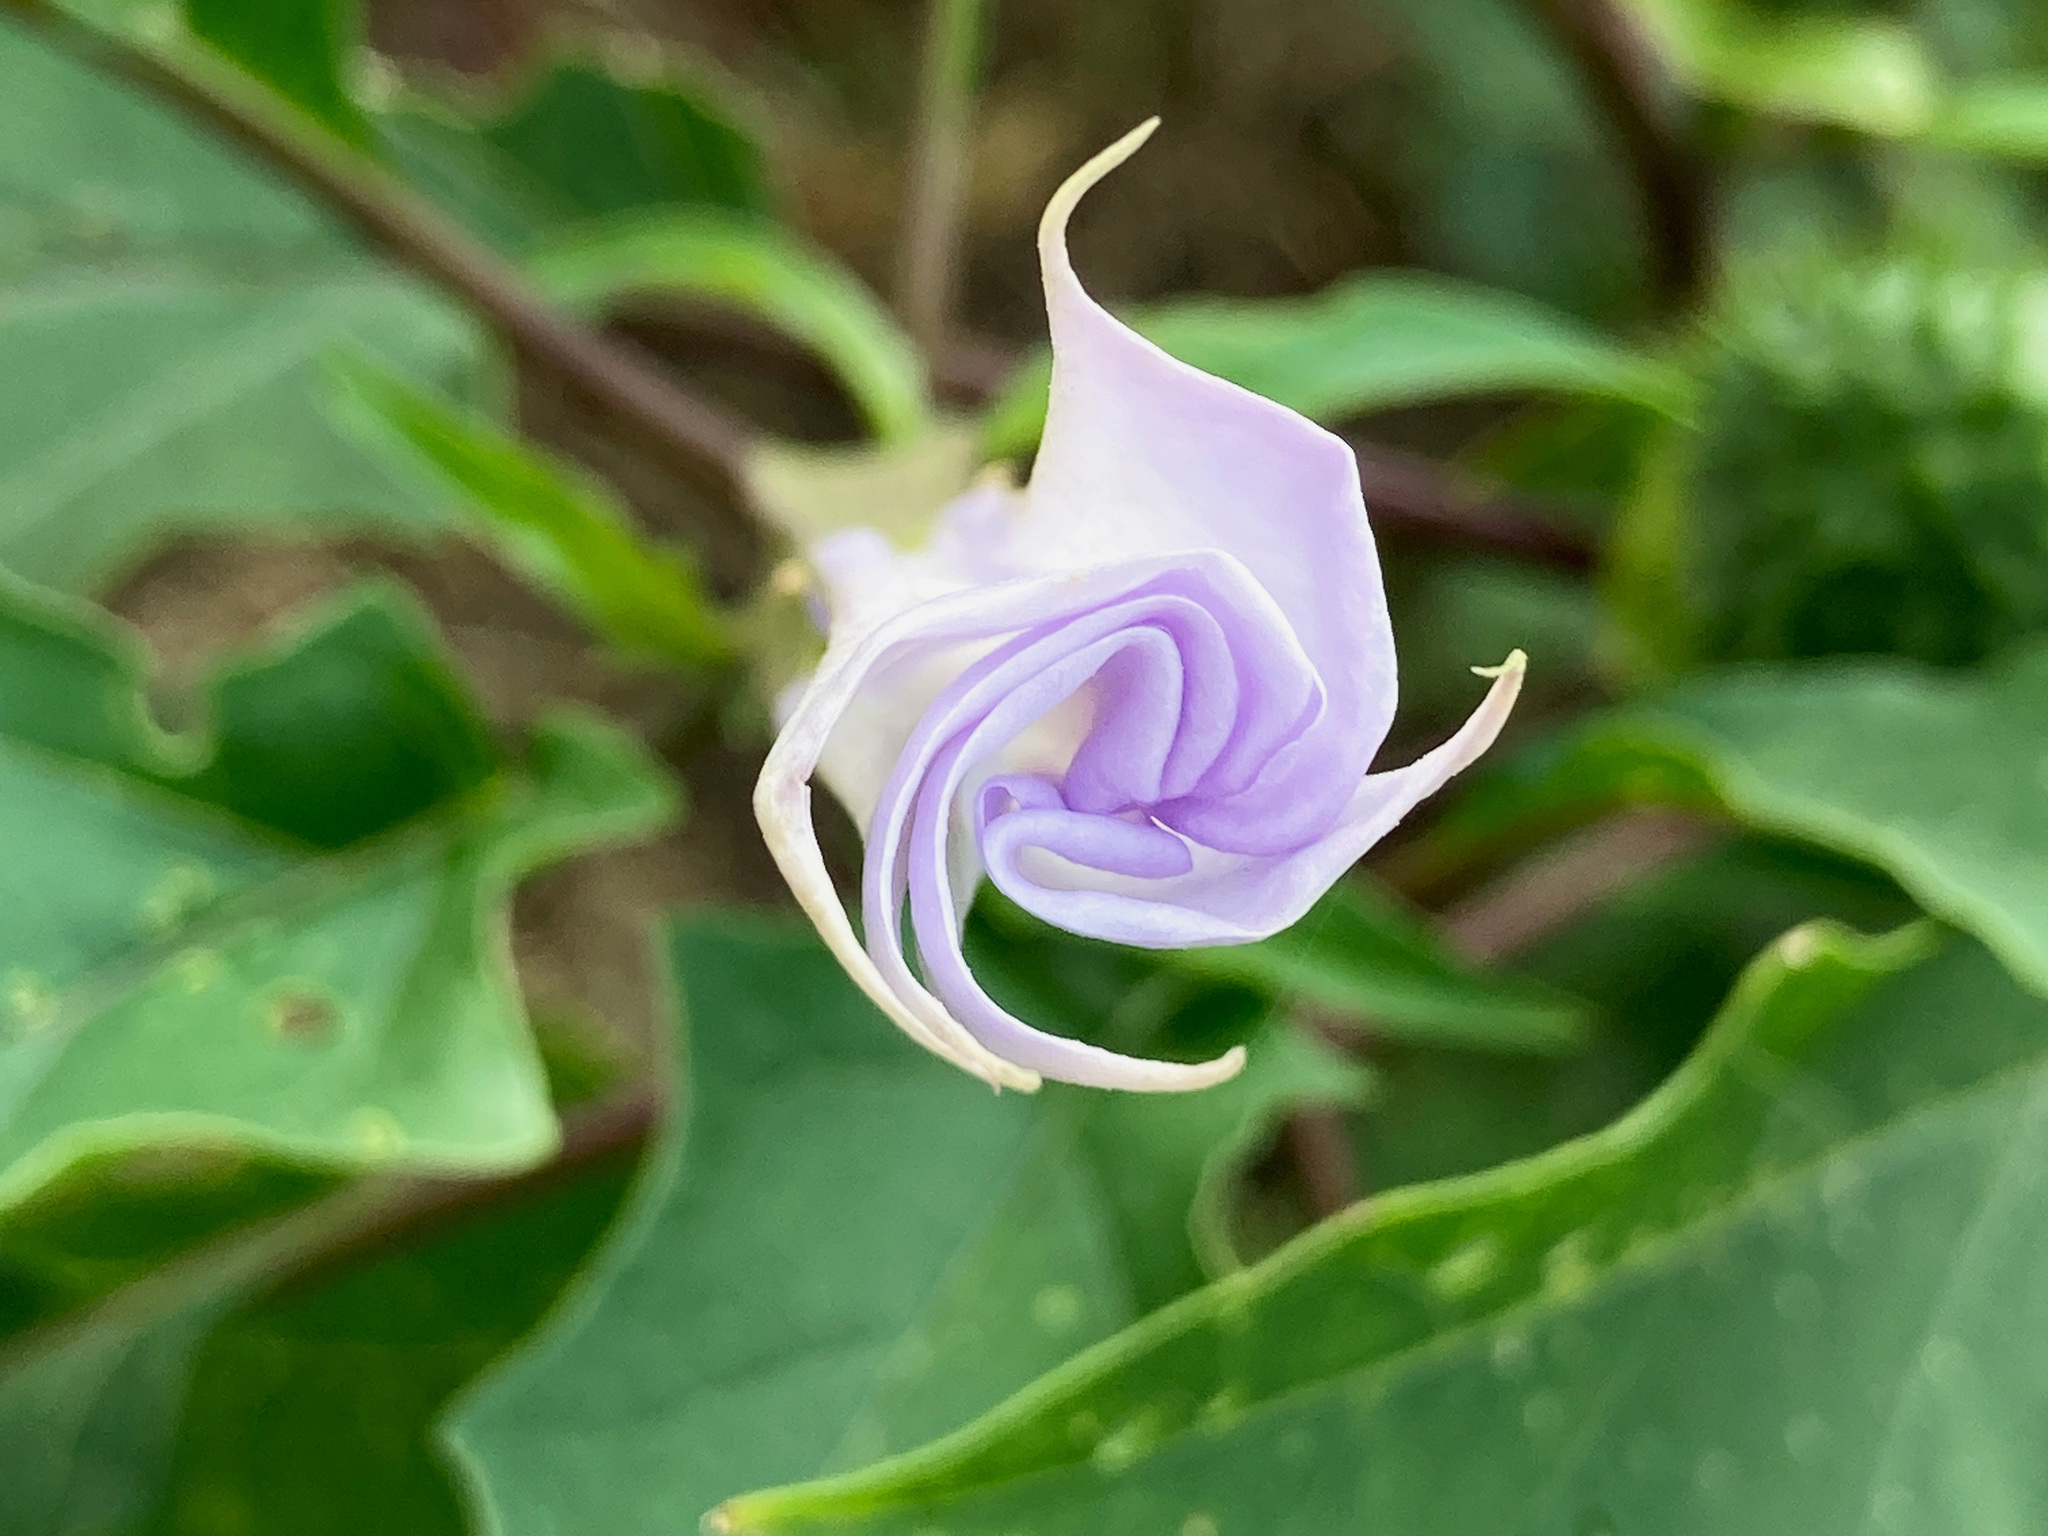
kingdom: Plantae
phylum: Tracheophyta
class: Magnoliopsida
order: Solanales
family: Solanaceae
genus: Datura
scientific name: Datura stramonium
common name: Thorn-apple
